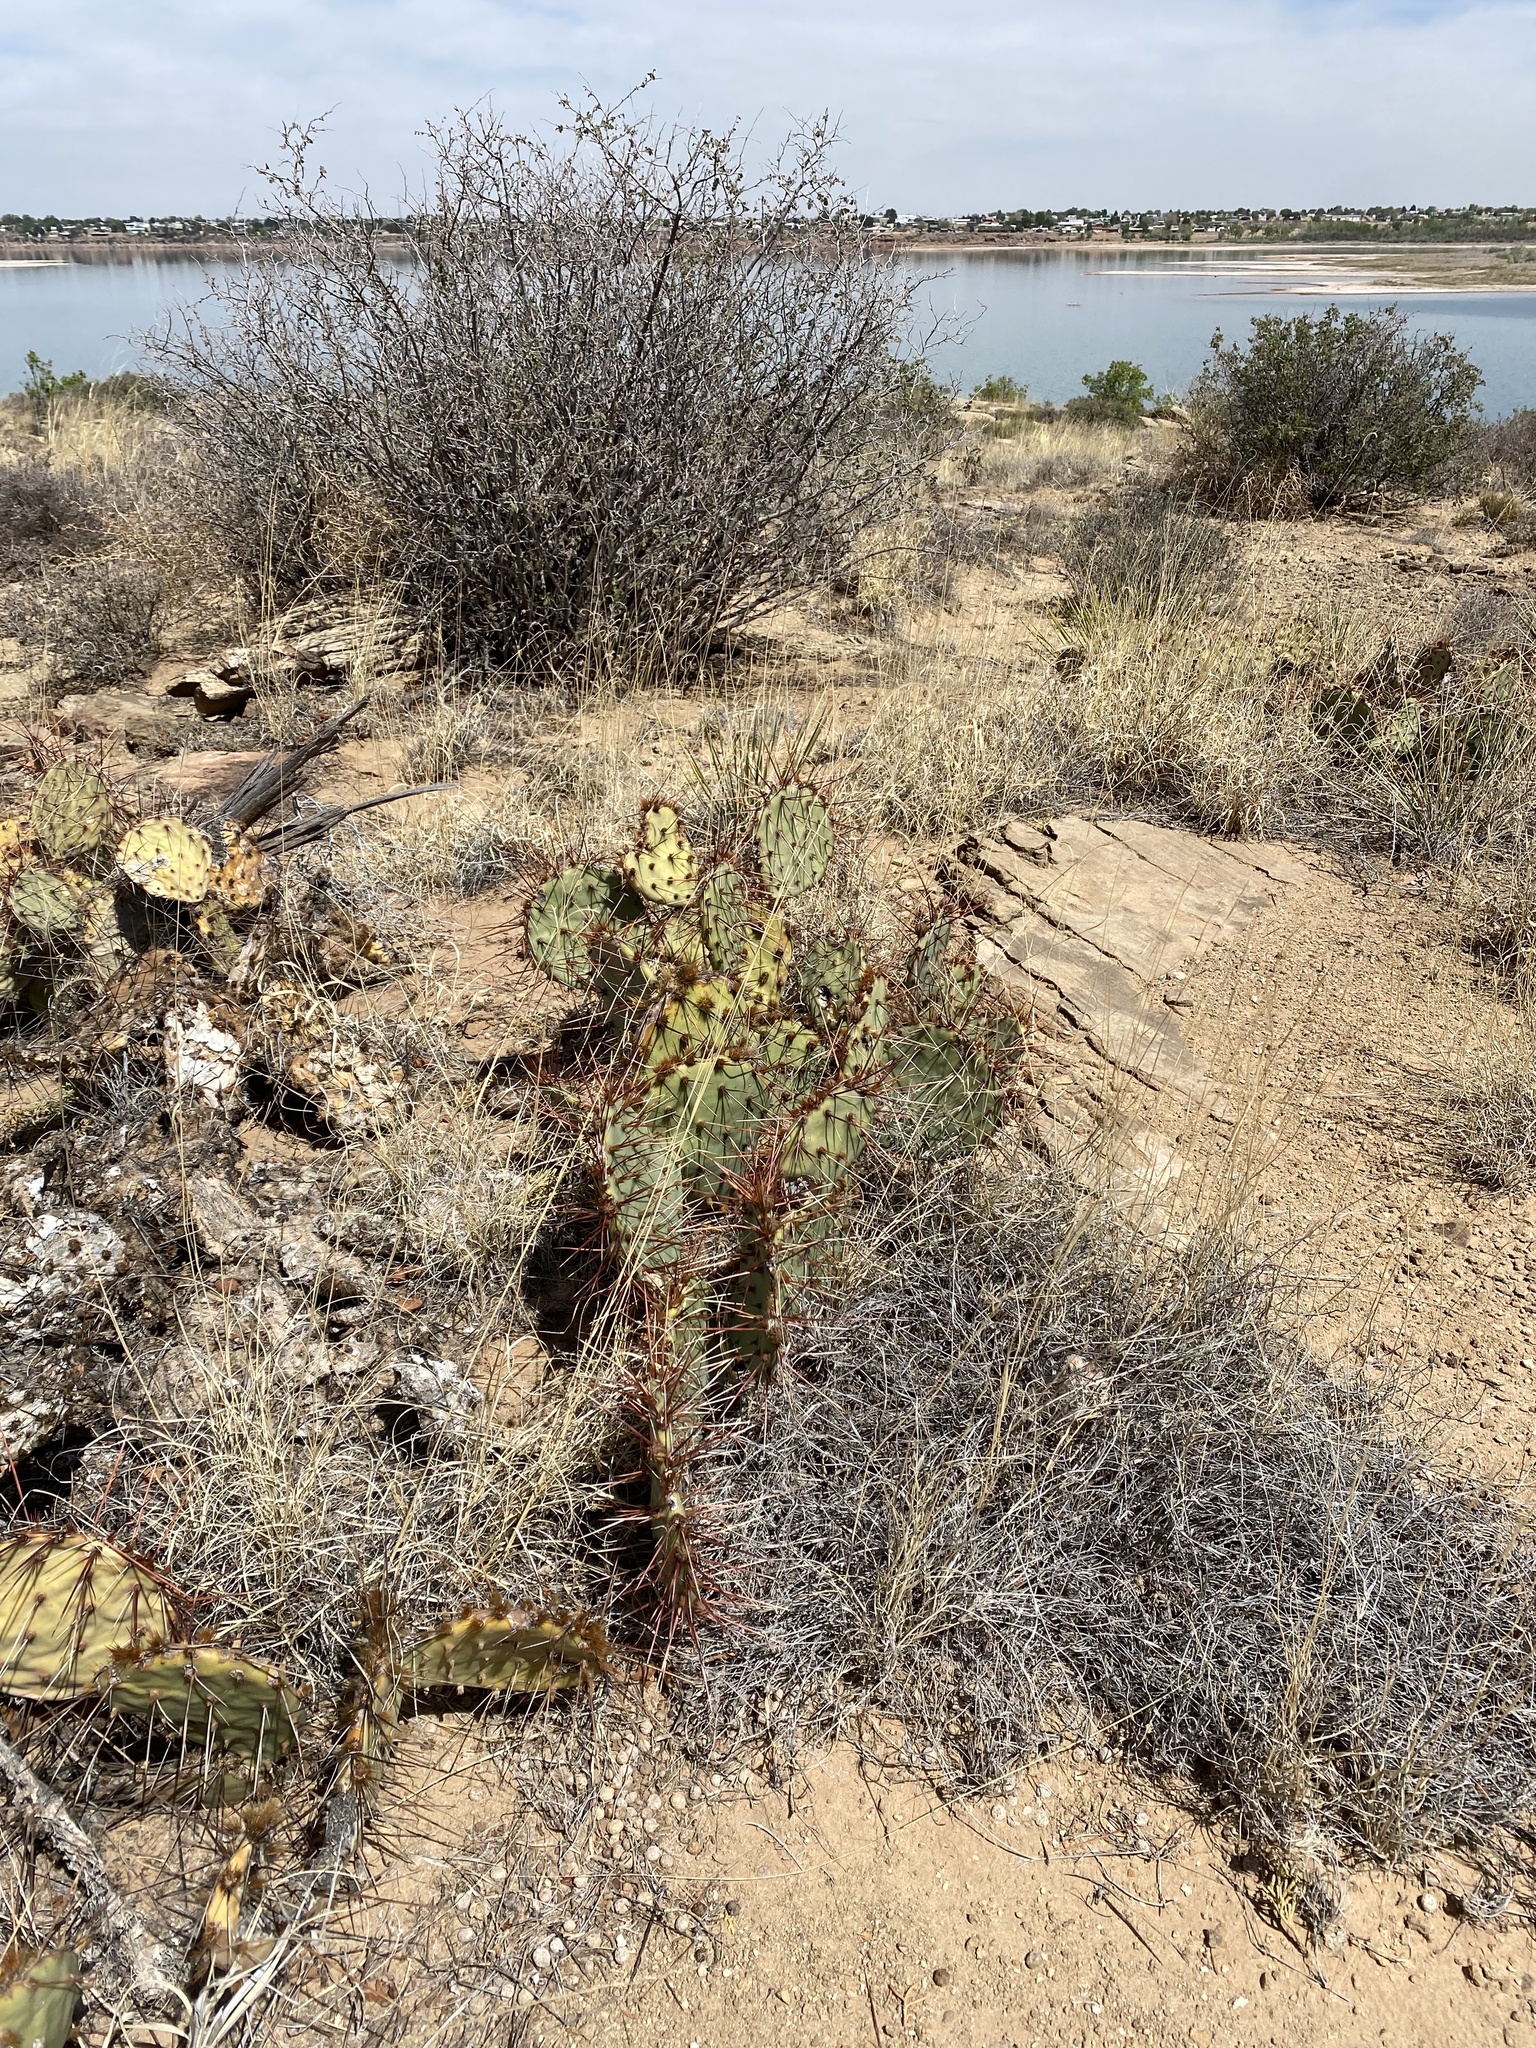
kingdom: Plantae
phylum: Tracheophyta
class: Magnoliopsida
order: Caryophyllales
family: Cactaceae
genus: Opuntia
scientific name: Opuntia phaeacantha
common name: New mexico prickly-pear
